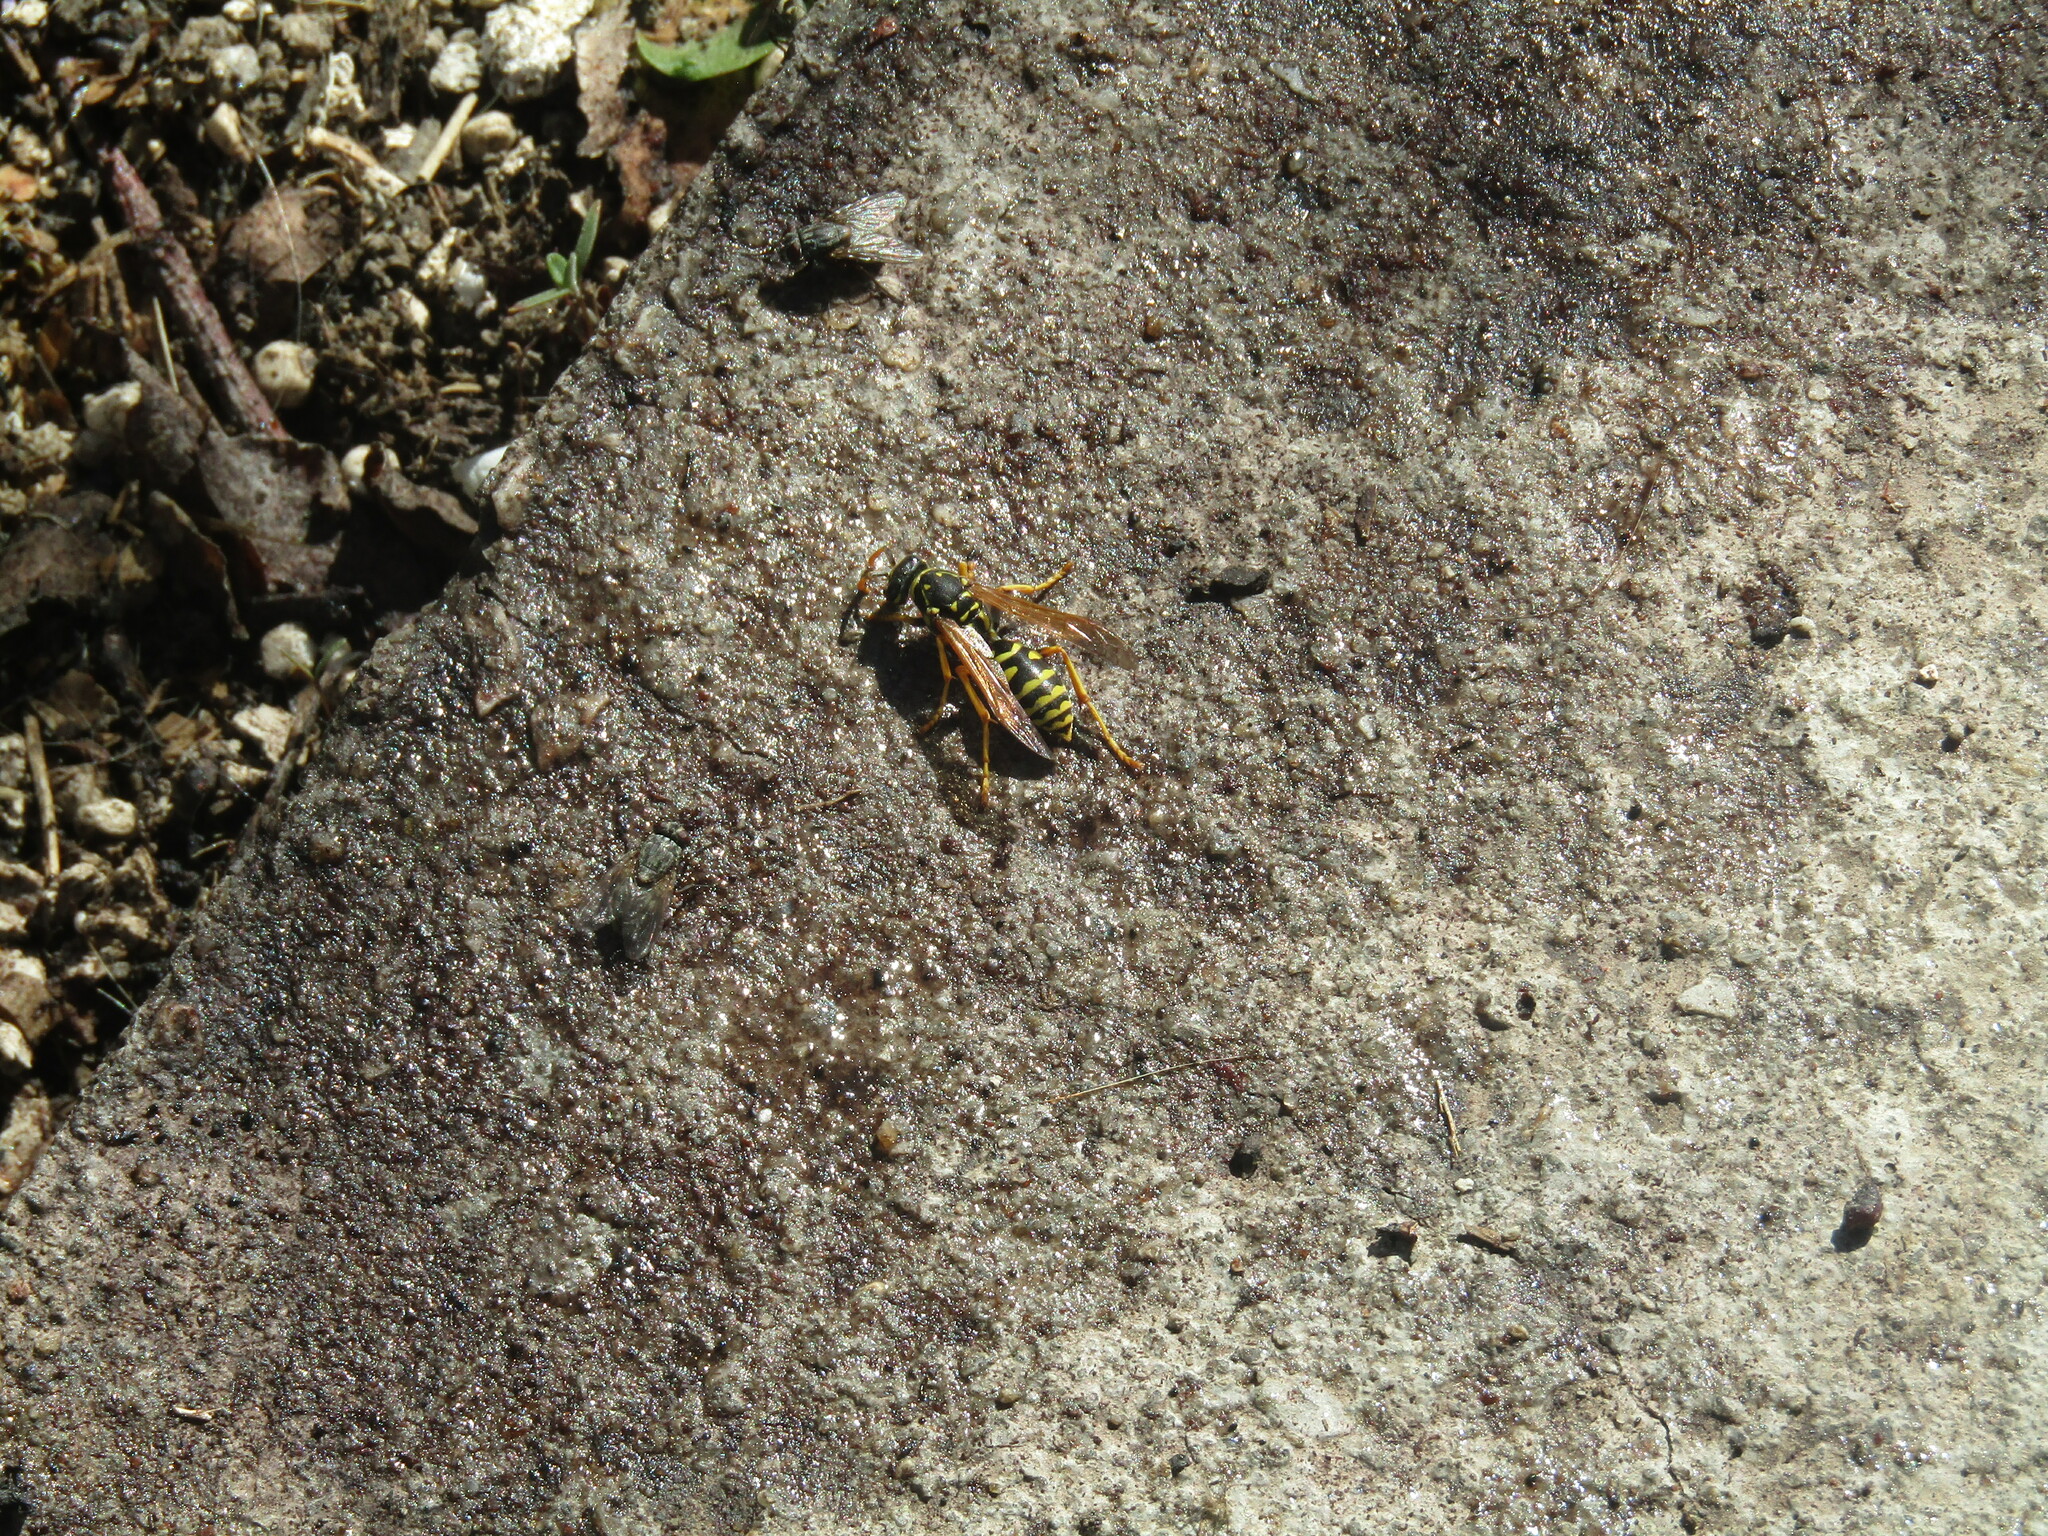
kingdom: Animalia
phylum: Arthropoda
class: Insecta
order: Hymenoptera
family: Eumenidae
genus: Polistes
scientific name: Polistes dominula
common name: Paper wasp
